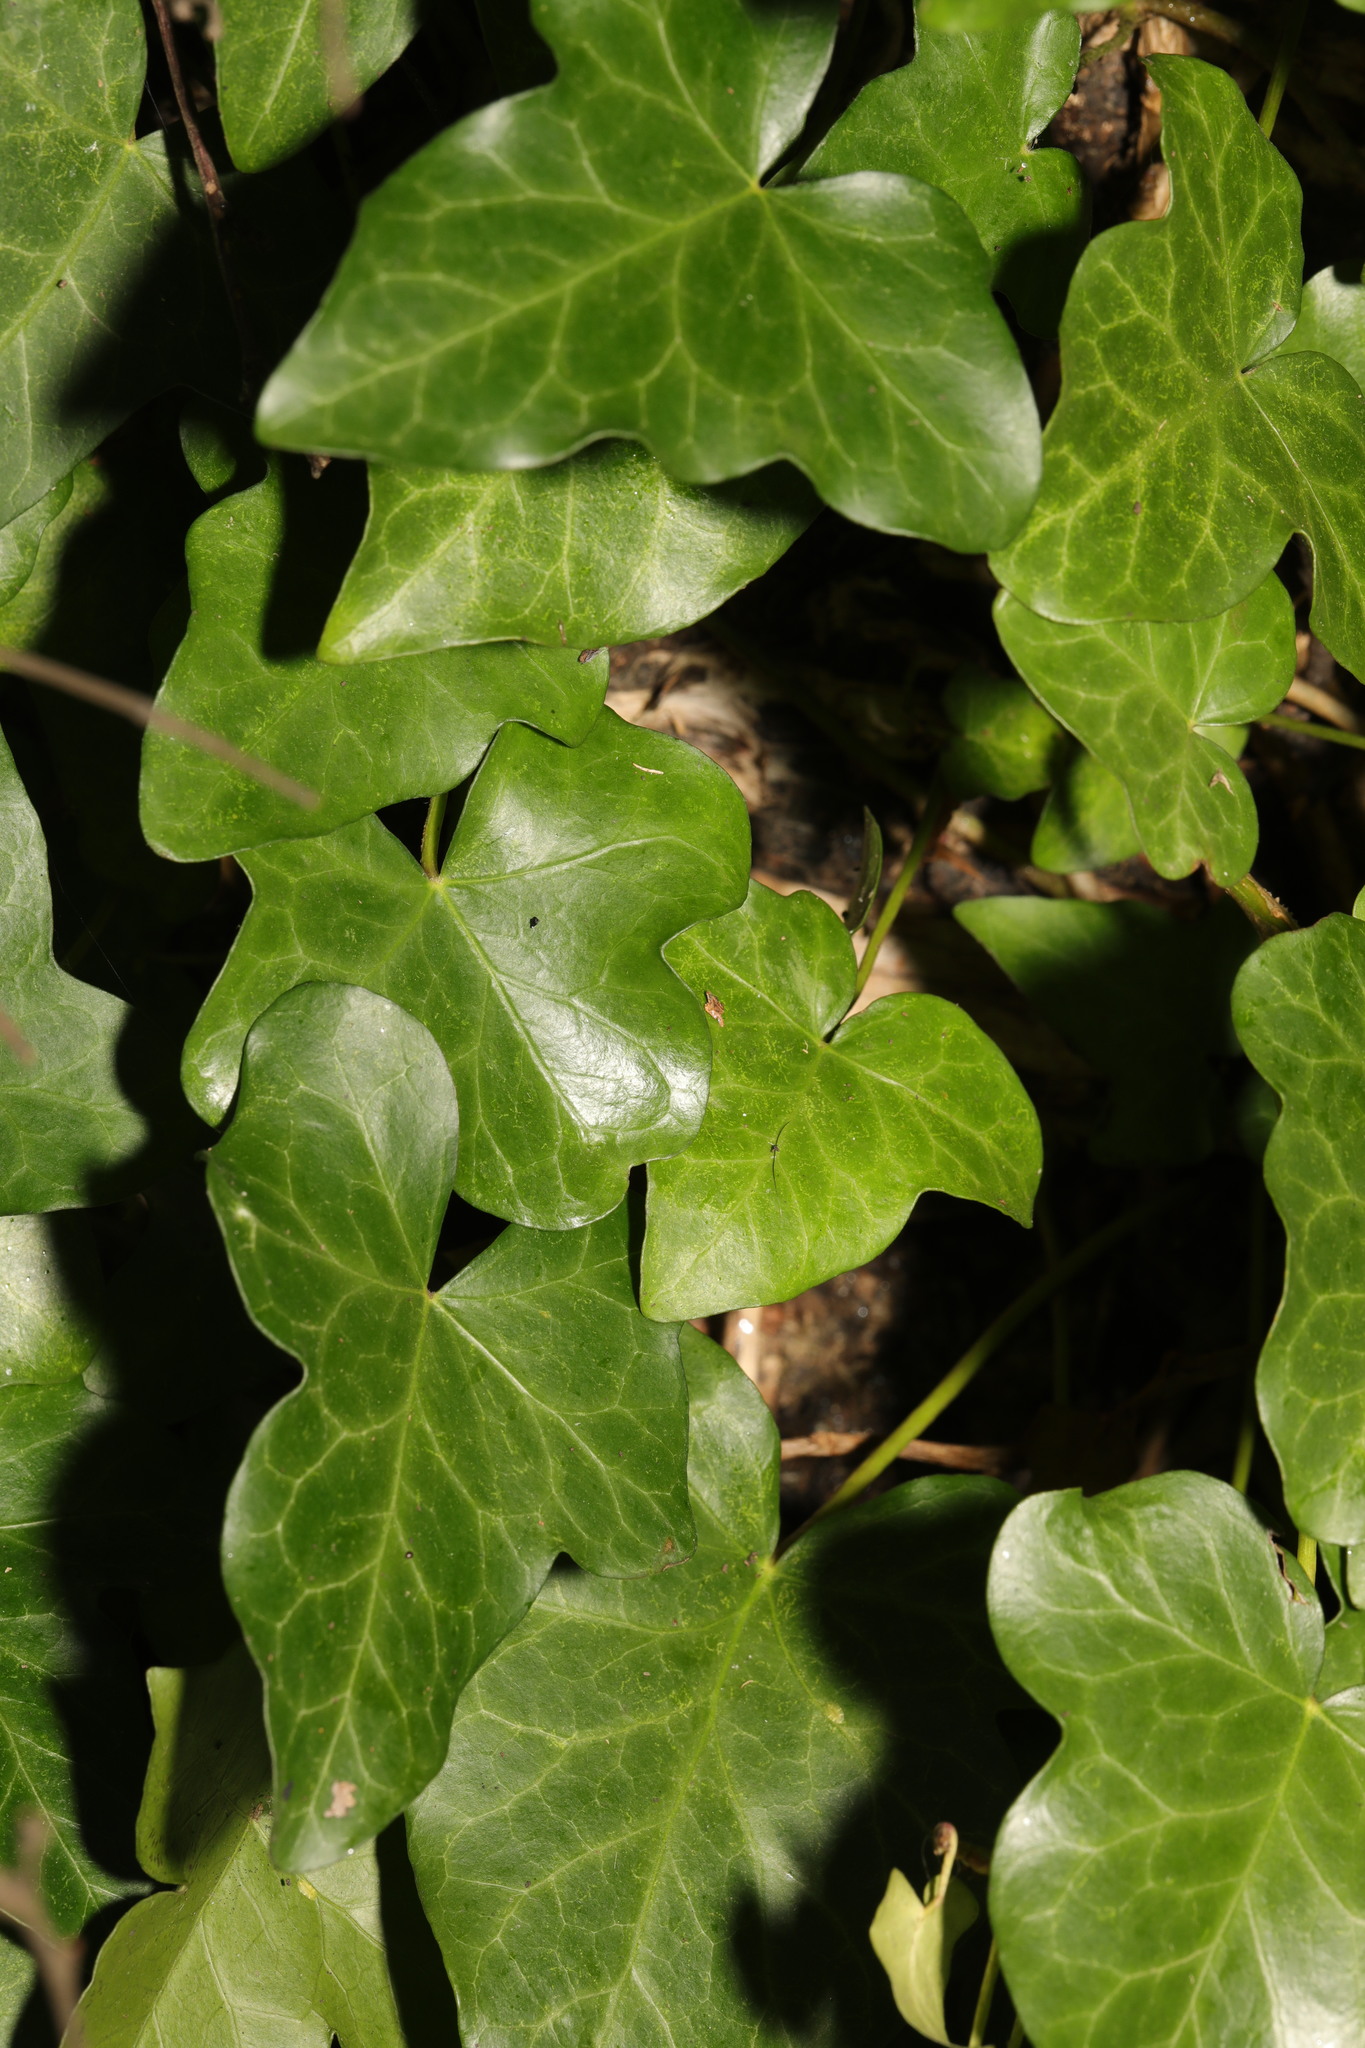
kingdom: Plantae
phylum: Tracheophyta
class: Magnoliopsida
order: Apiales
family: Araliaceae
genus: Hedera
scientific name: Hedera helix
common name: Ivy
